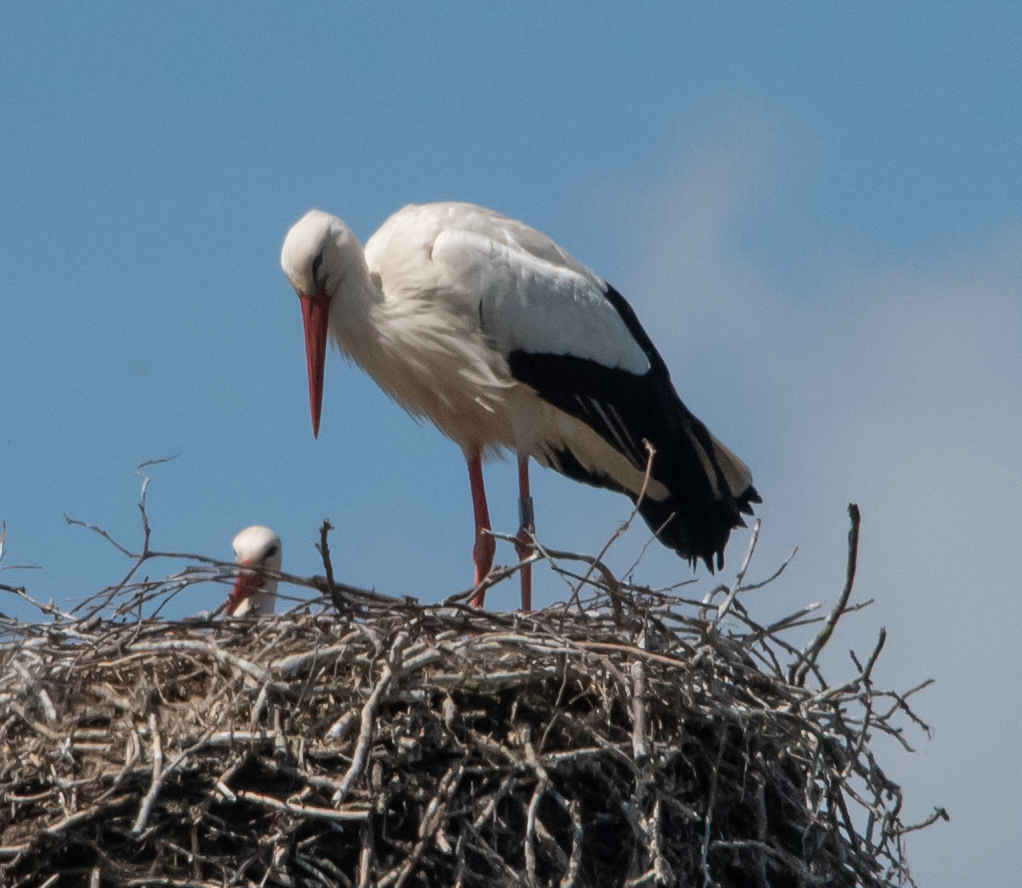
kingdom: Animalia
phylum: Chordata
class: Aves
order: Ciconiiformes
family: Ciconiidae
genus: Ciconia
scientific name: Ciconia ciconia
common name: White stork
